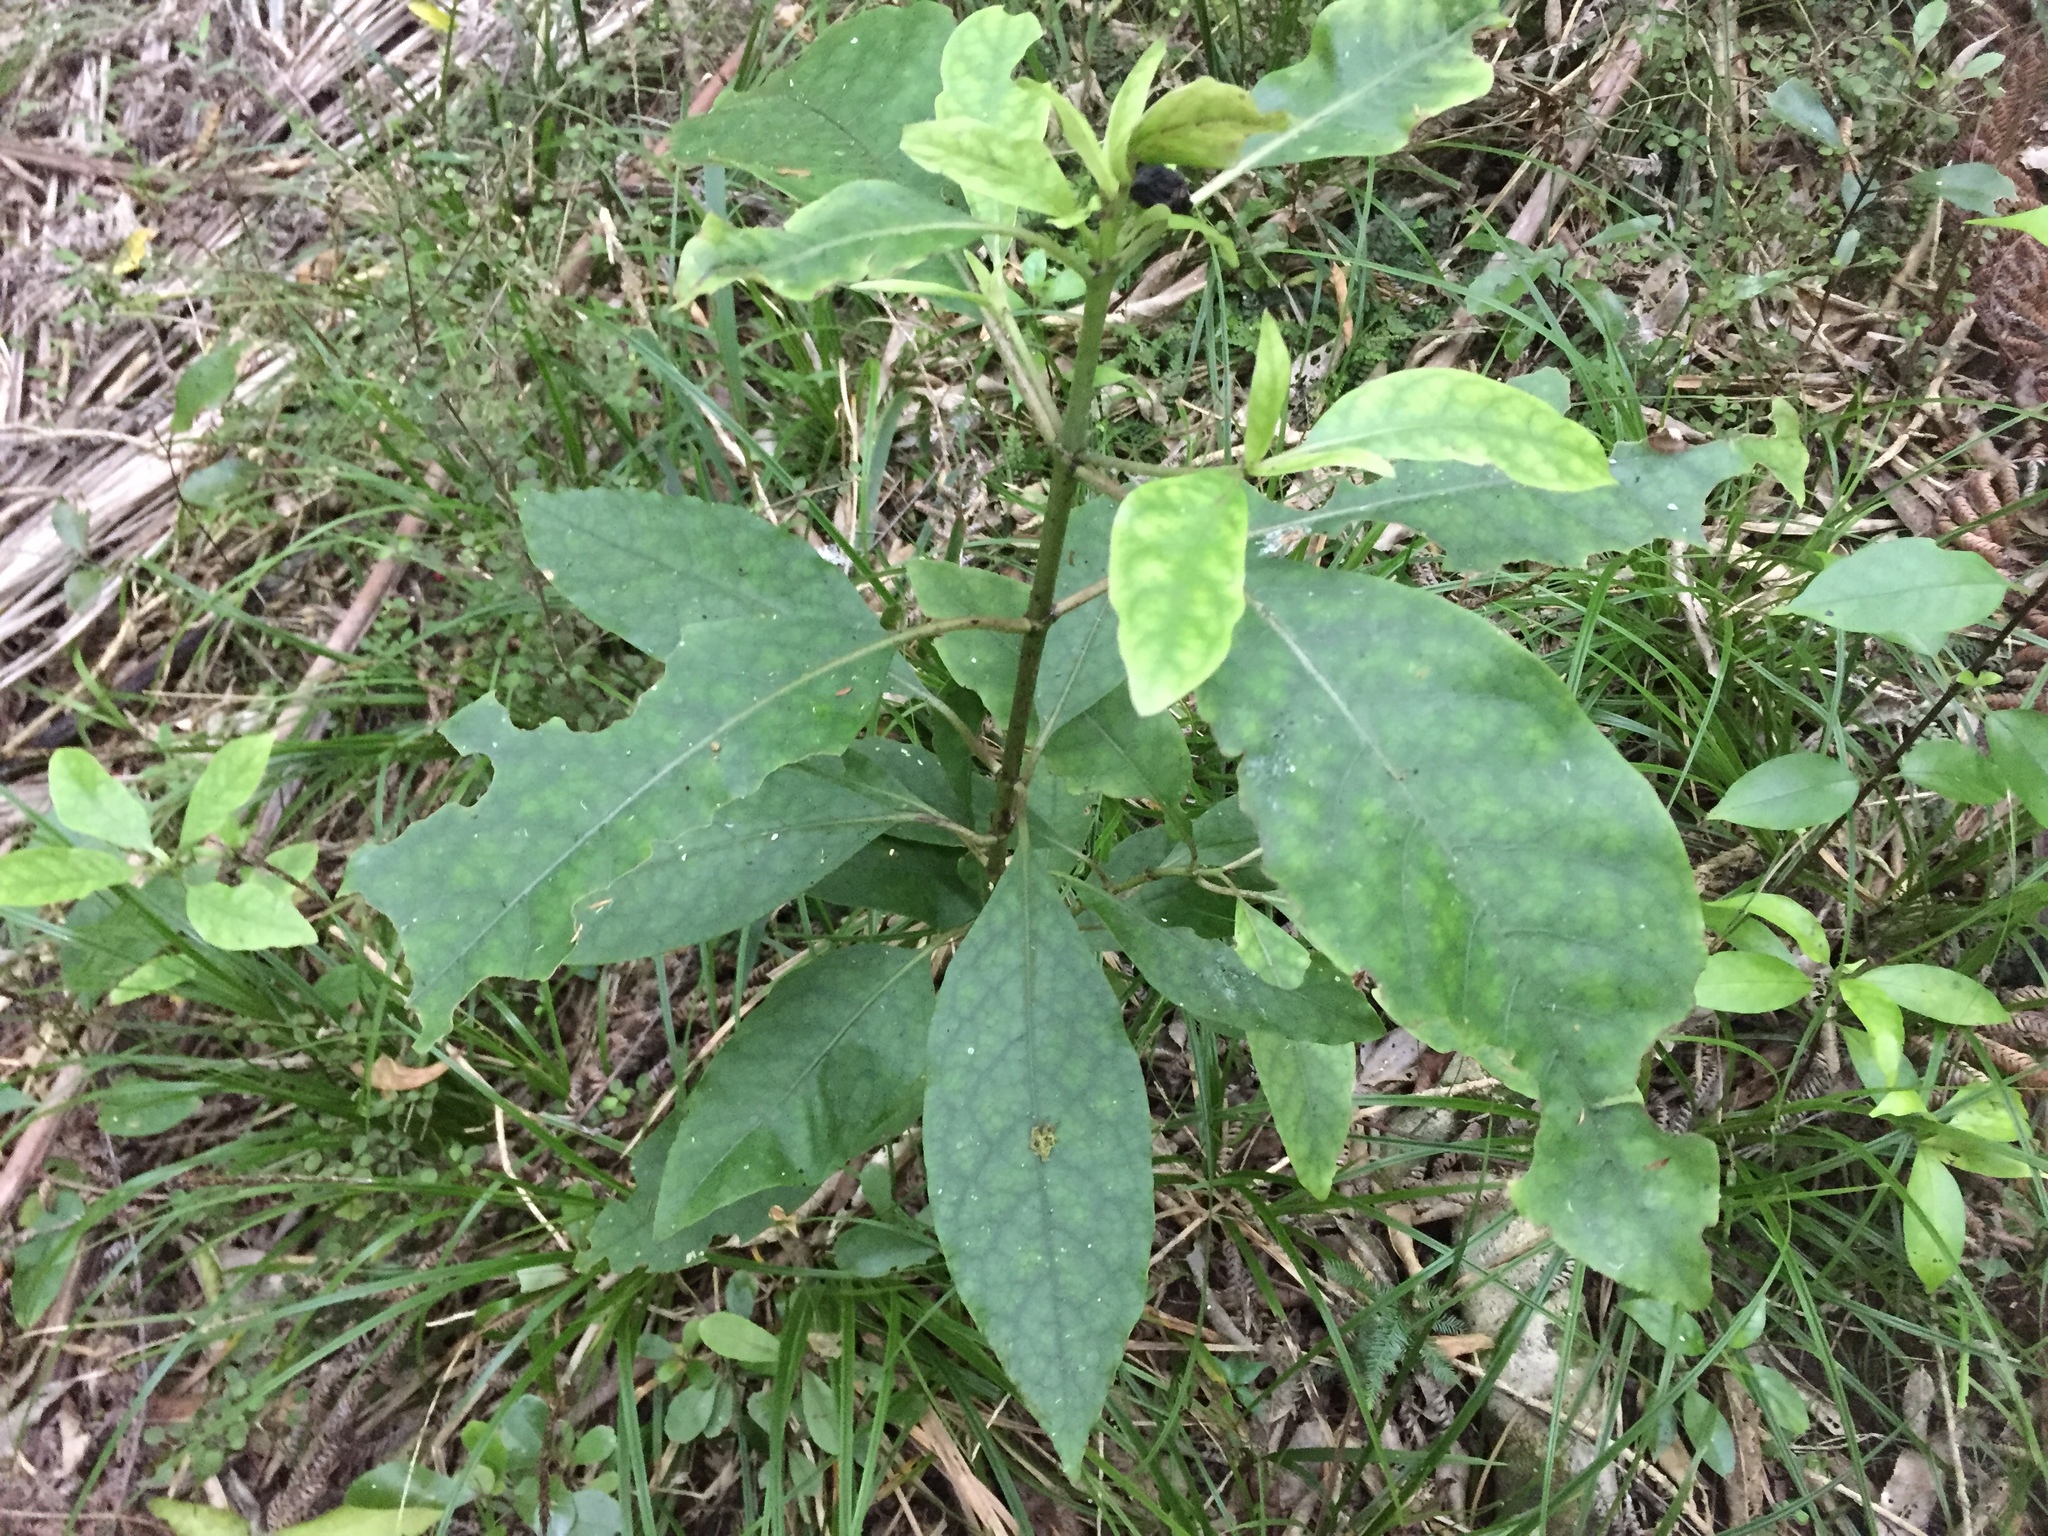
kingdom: Plantae
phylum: Tracheophyta
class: Magnoliopsida
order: Gentianales
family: Rubiaceae
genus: Coprosma
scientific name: Coprosma autumnalis
